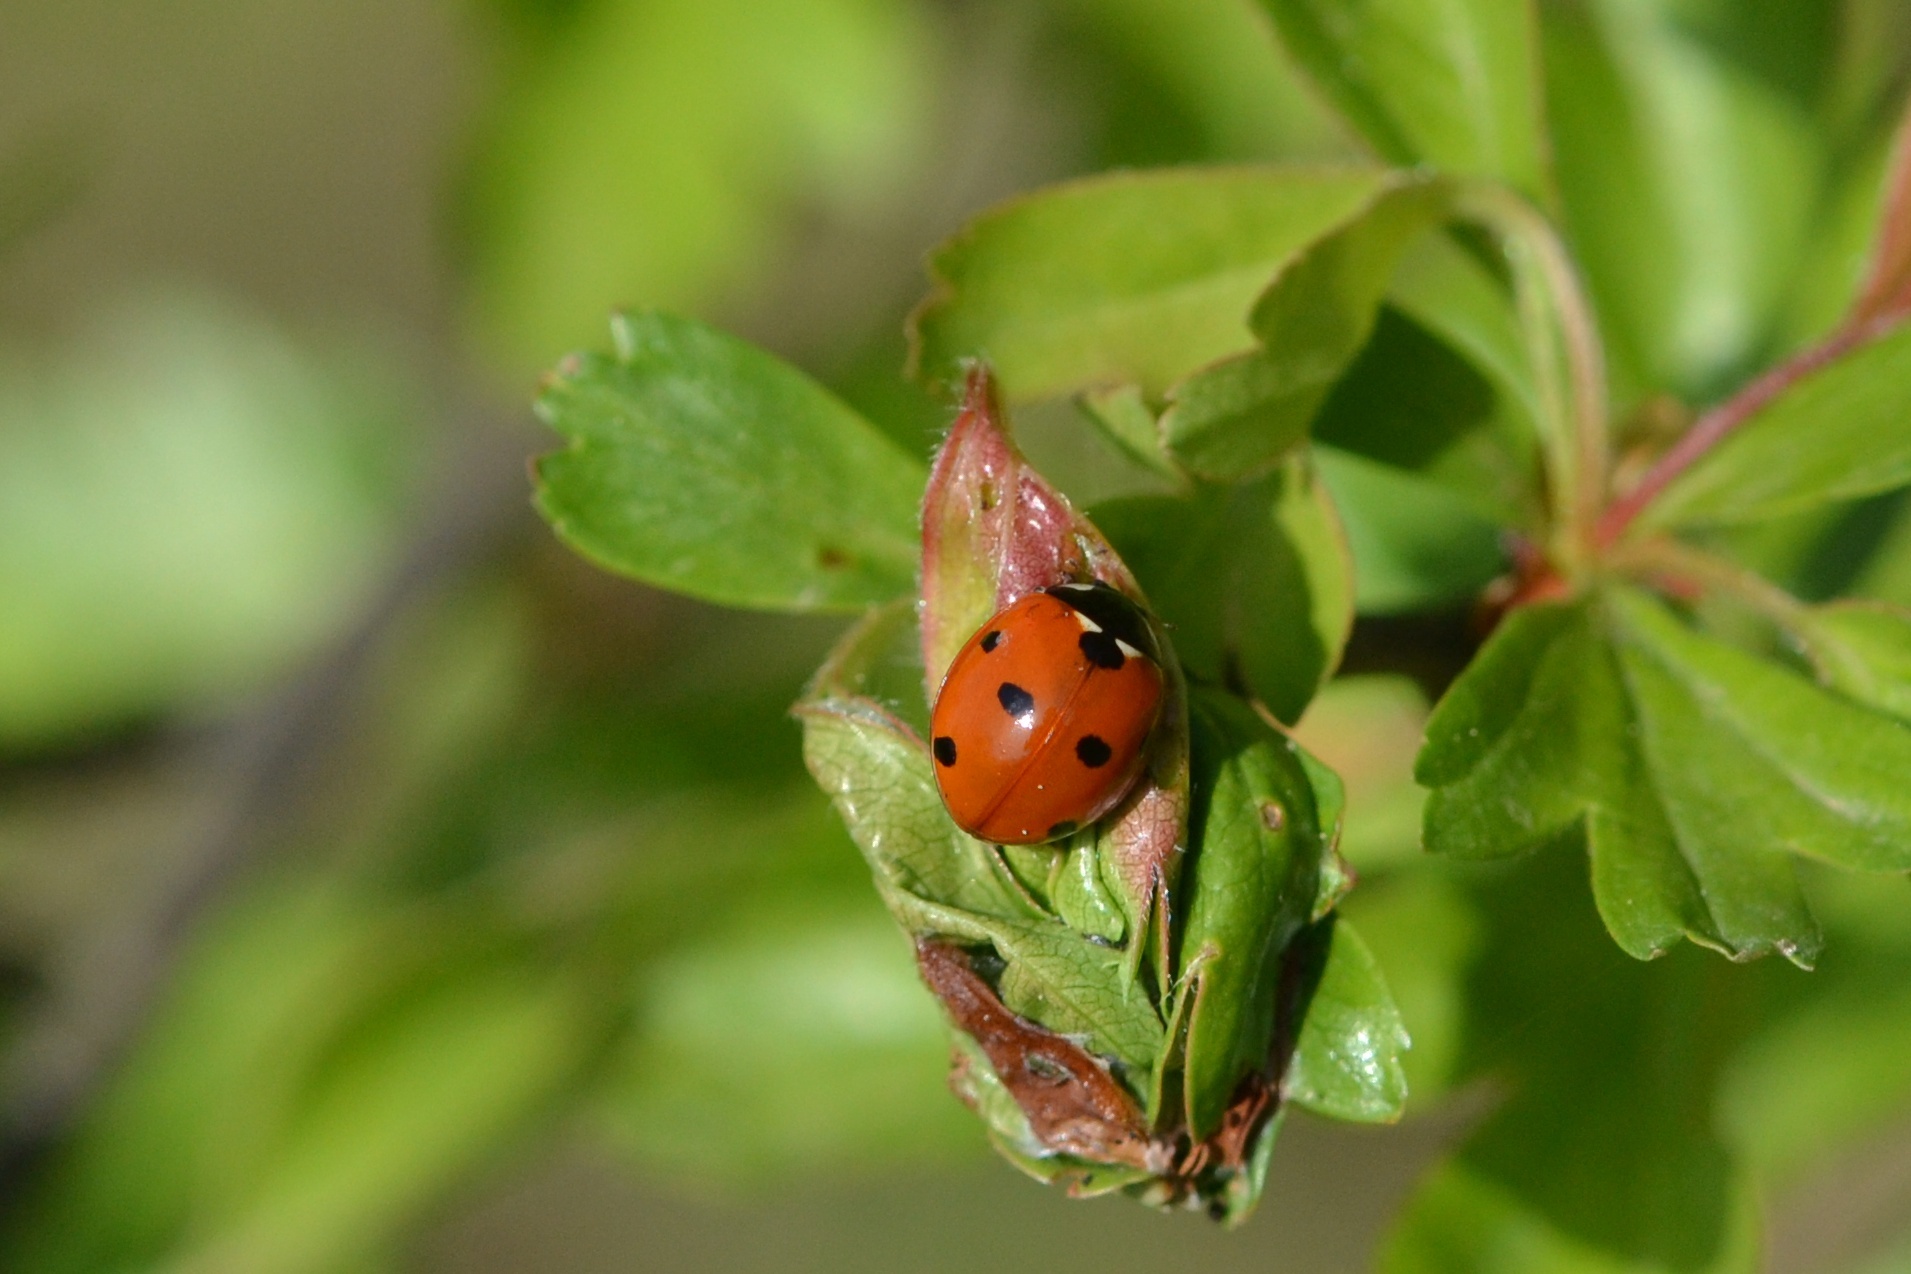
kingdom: Animalia
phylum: Arthropoda
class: Insecta
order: Coleoptera
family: Coccinellidae
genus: Coccinella
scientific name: Coccinella septempunctata
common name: Sevenspotted lady beetle
